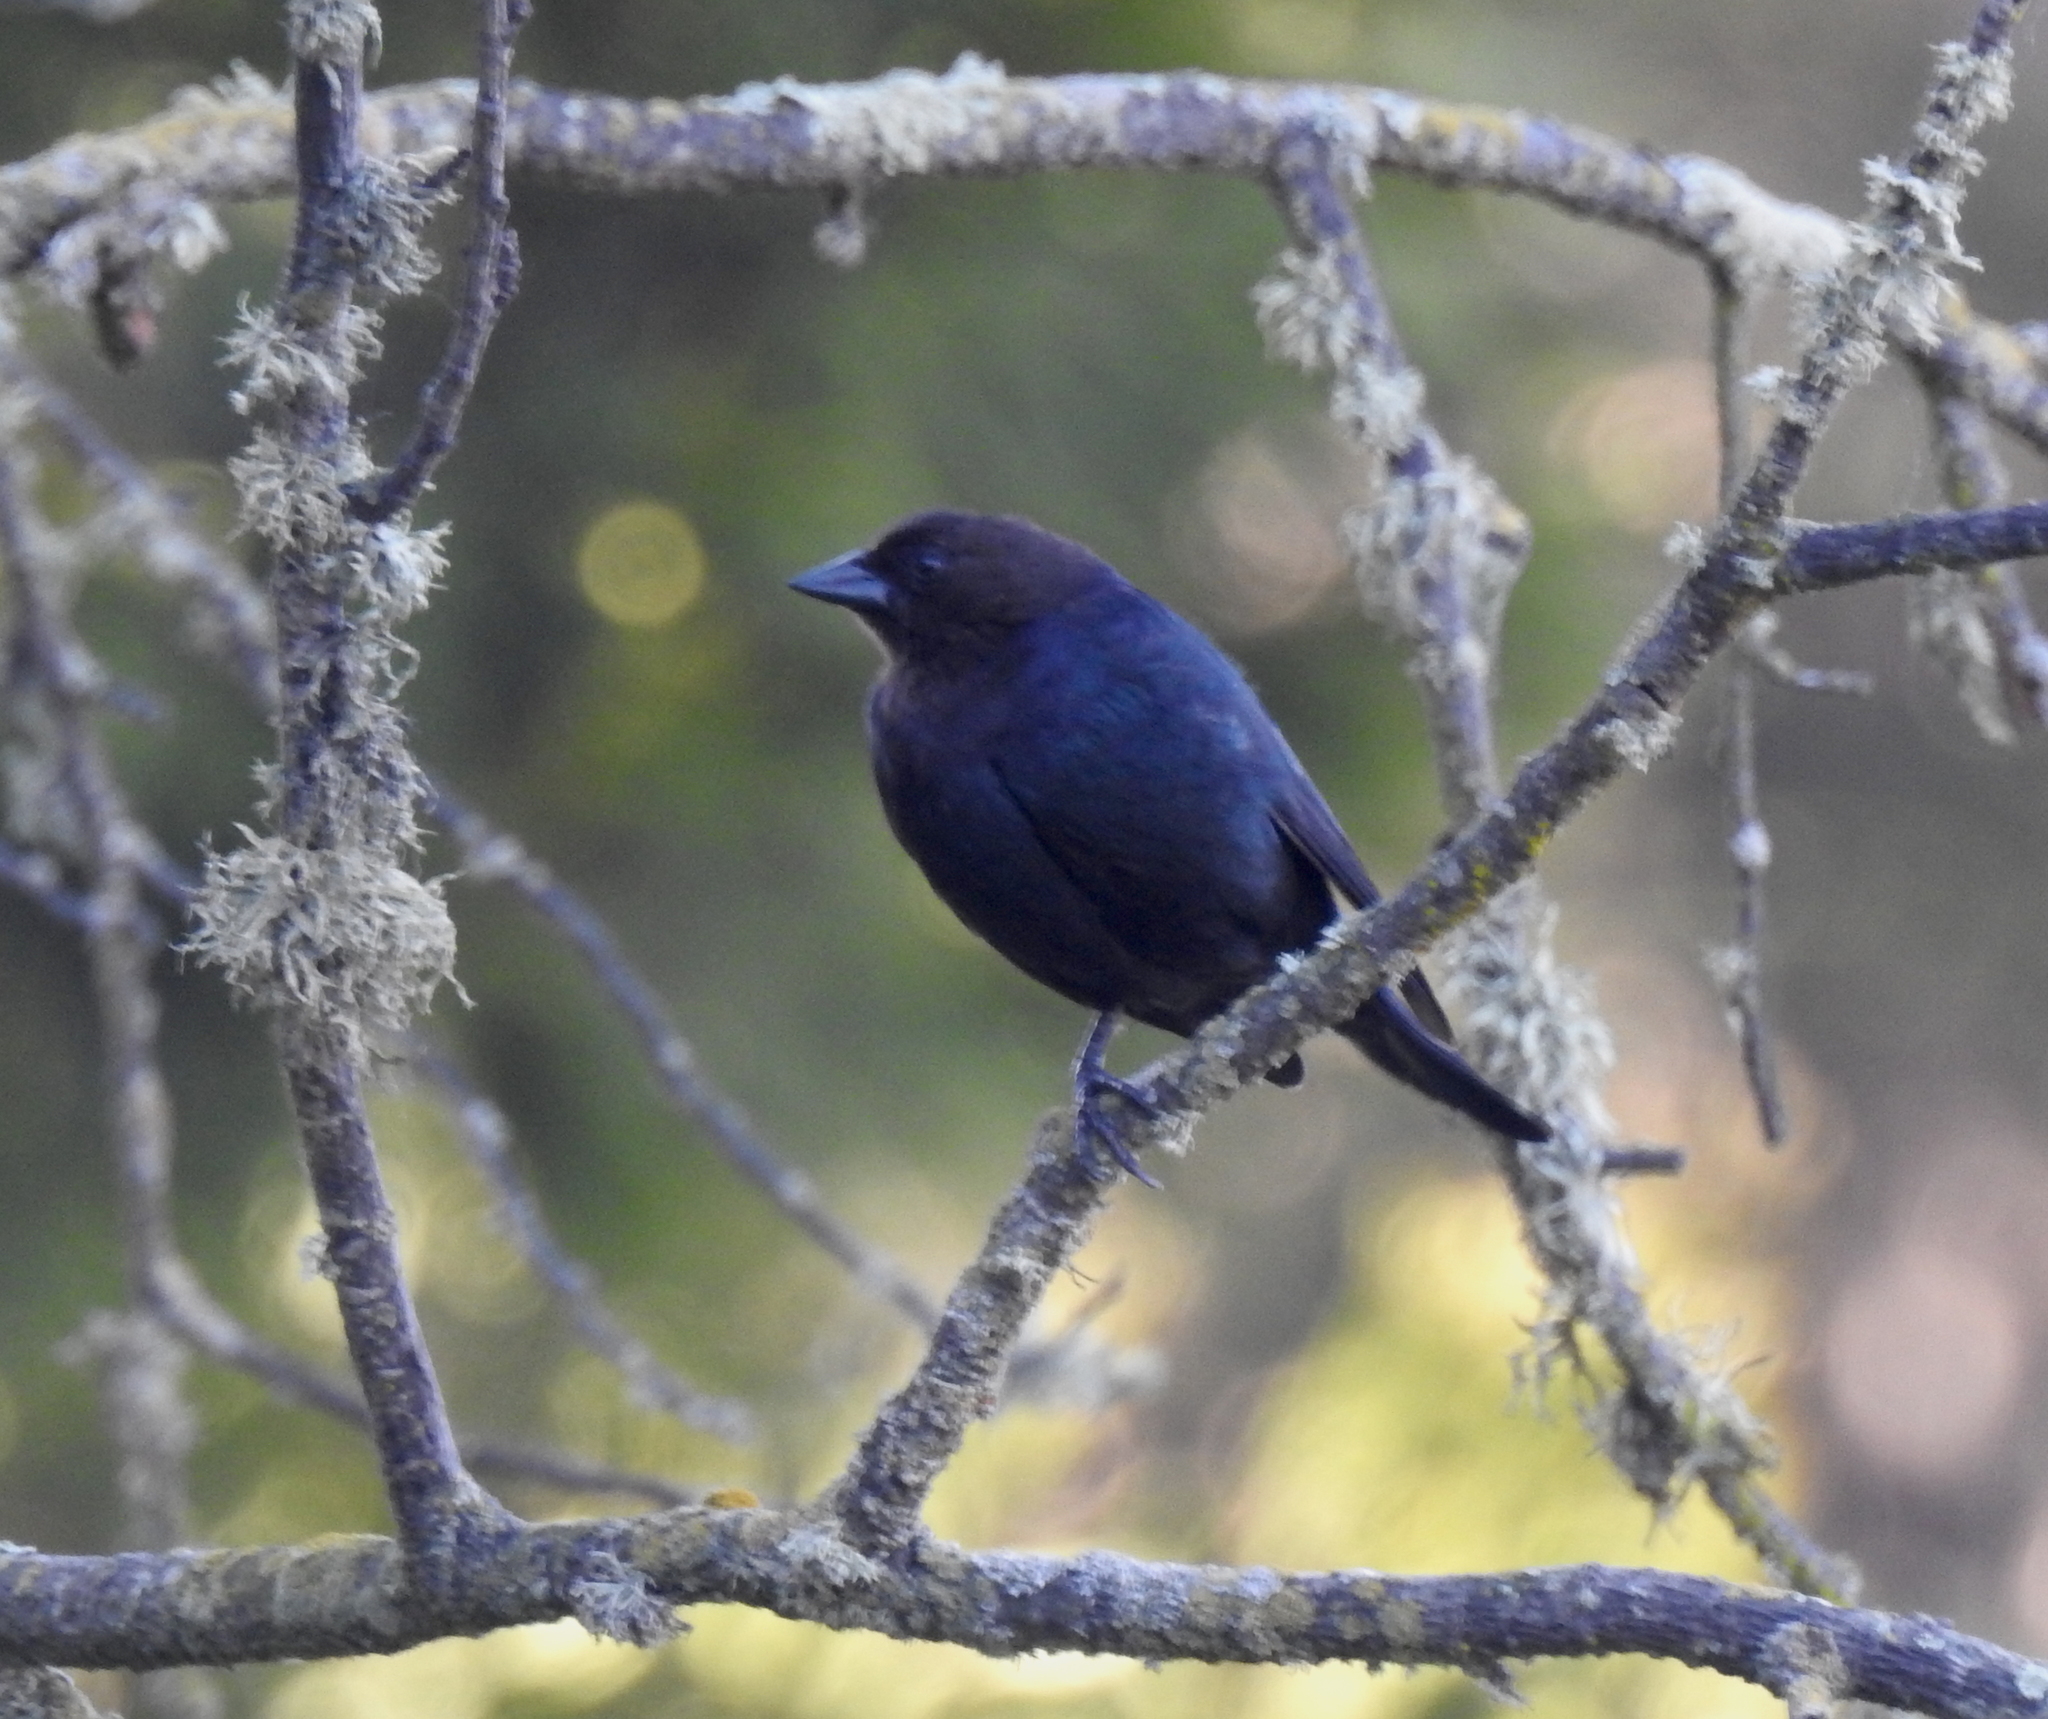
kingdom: Animalia
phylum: Chordata
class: Aves
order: Passeriformes
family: Icteridae
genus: Molothrus
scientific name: Molothrus ater
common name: Brown-headed cowbird
